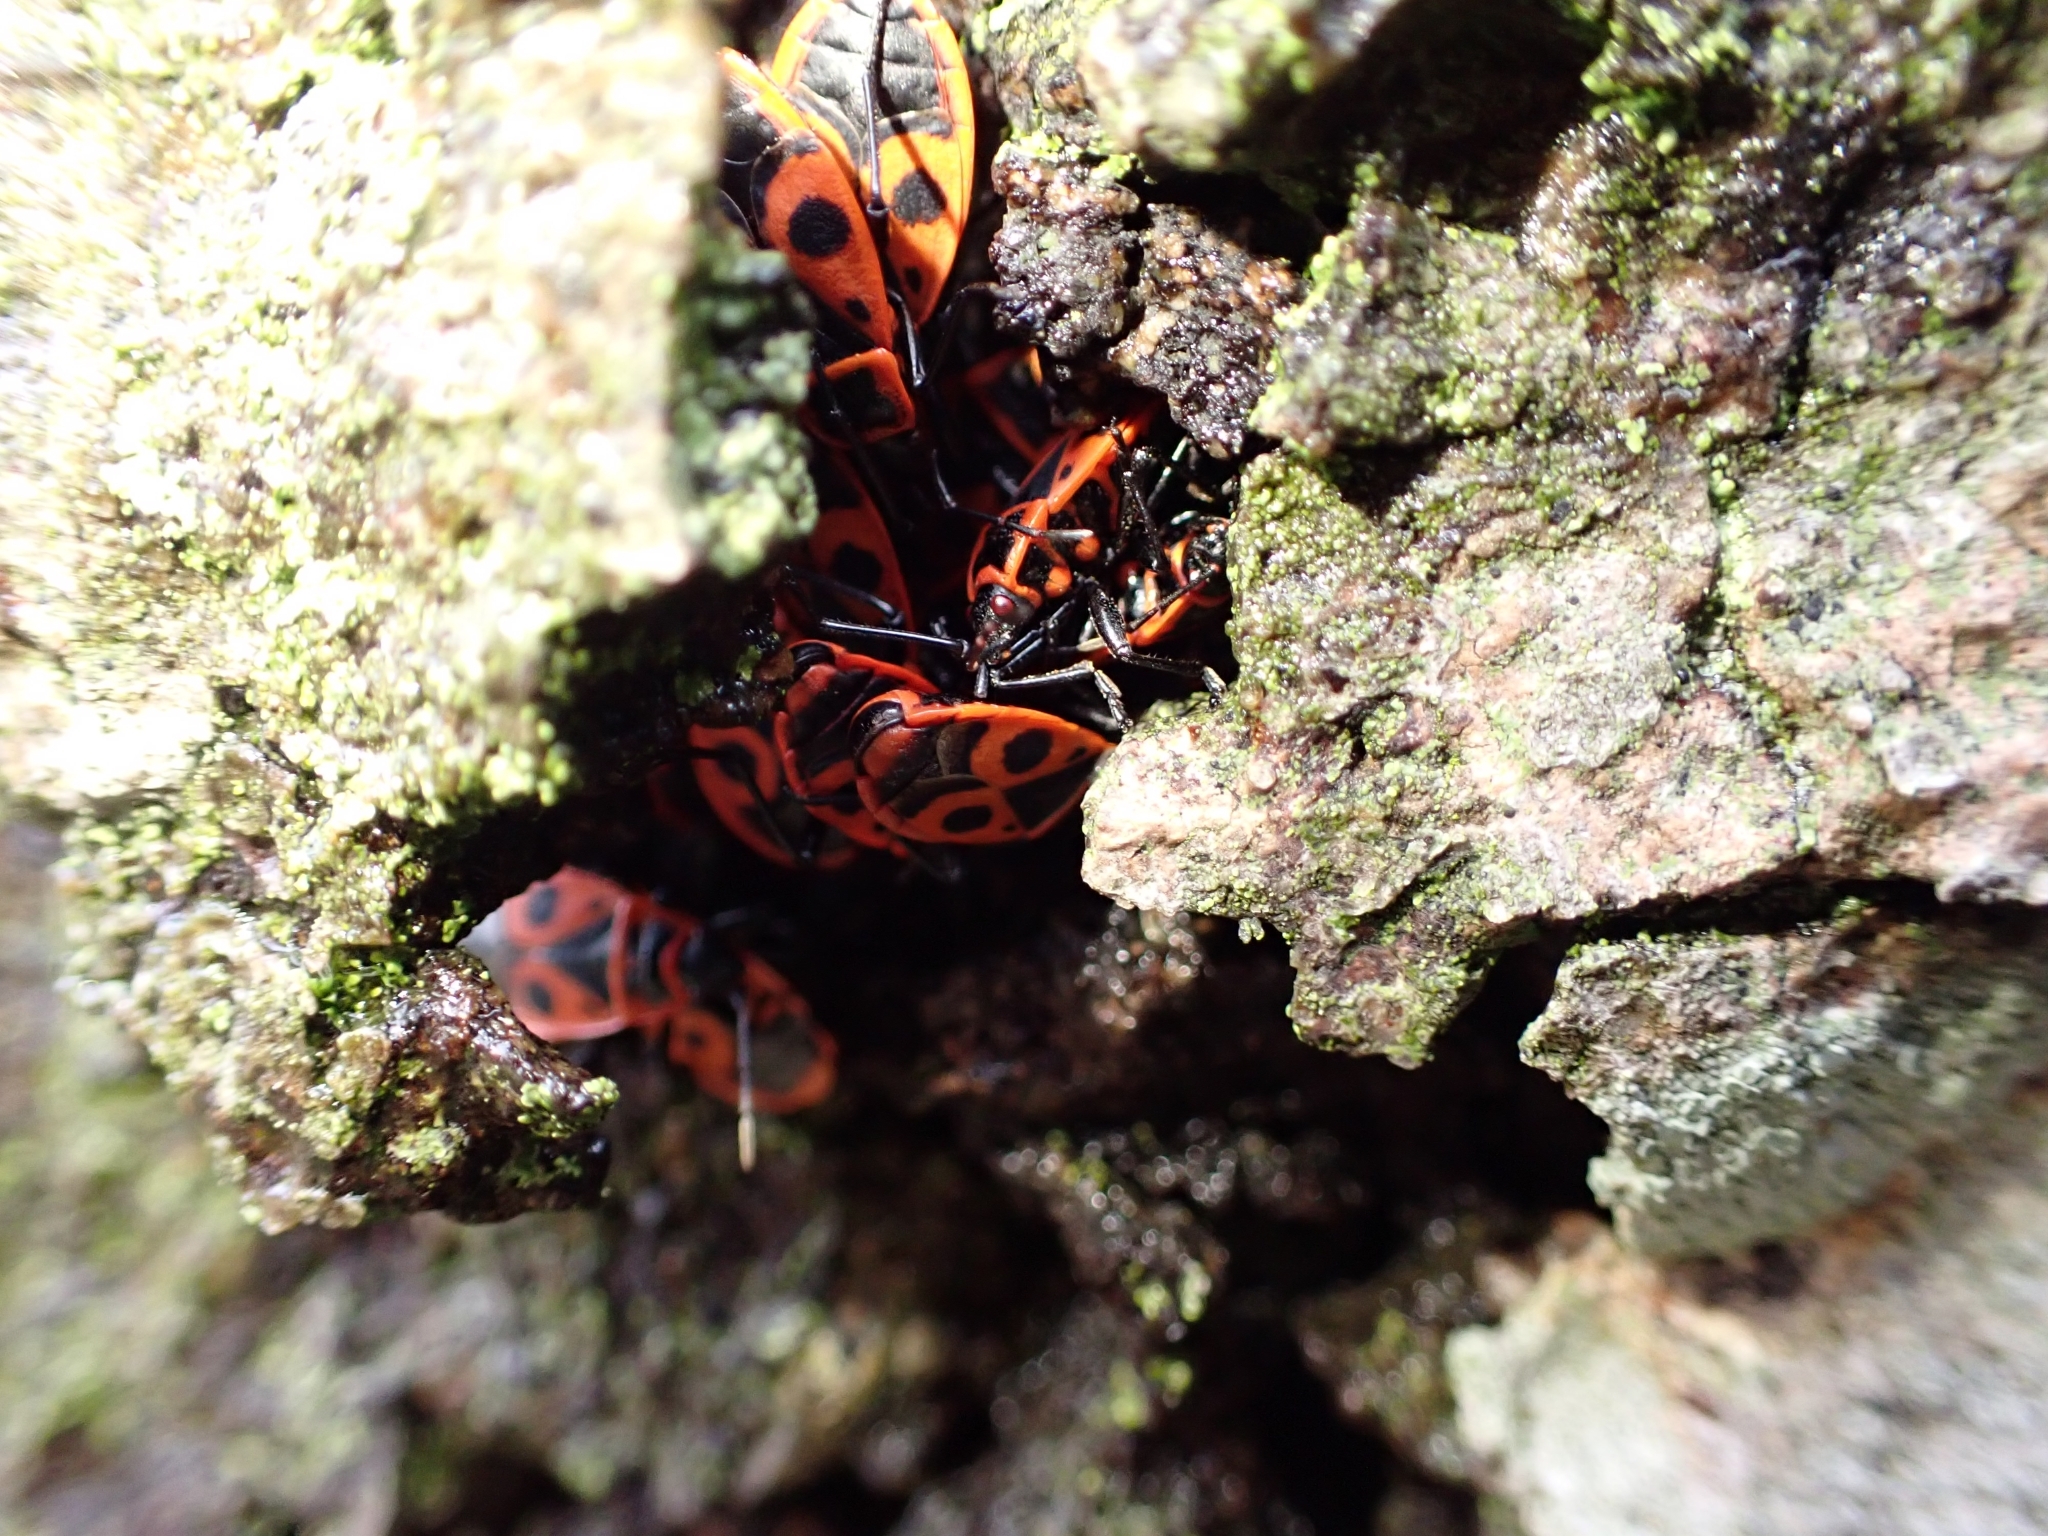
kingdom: Animalia
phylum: Arthropoda
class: Insecta
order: Hemiptera
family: Pyrrhocoridae
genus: Pyrrhocoris
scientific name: Pyrrhocoris apterus
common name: Firebug
